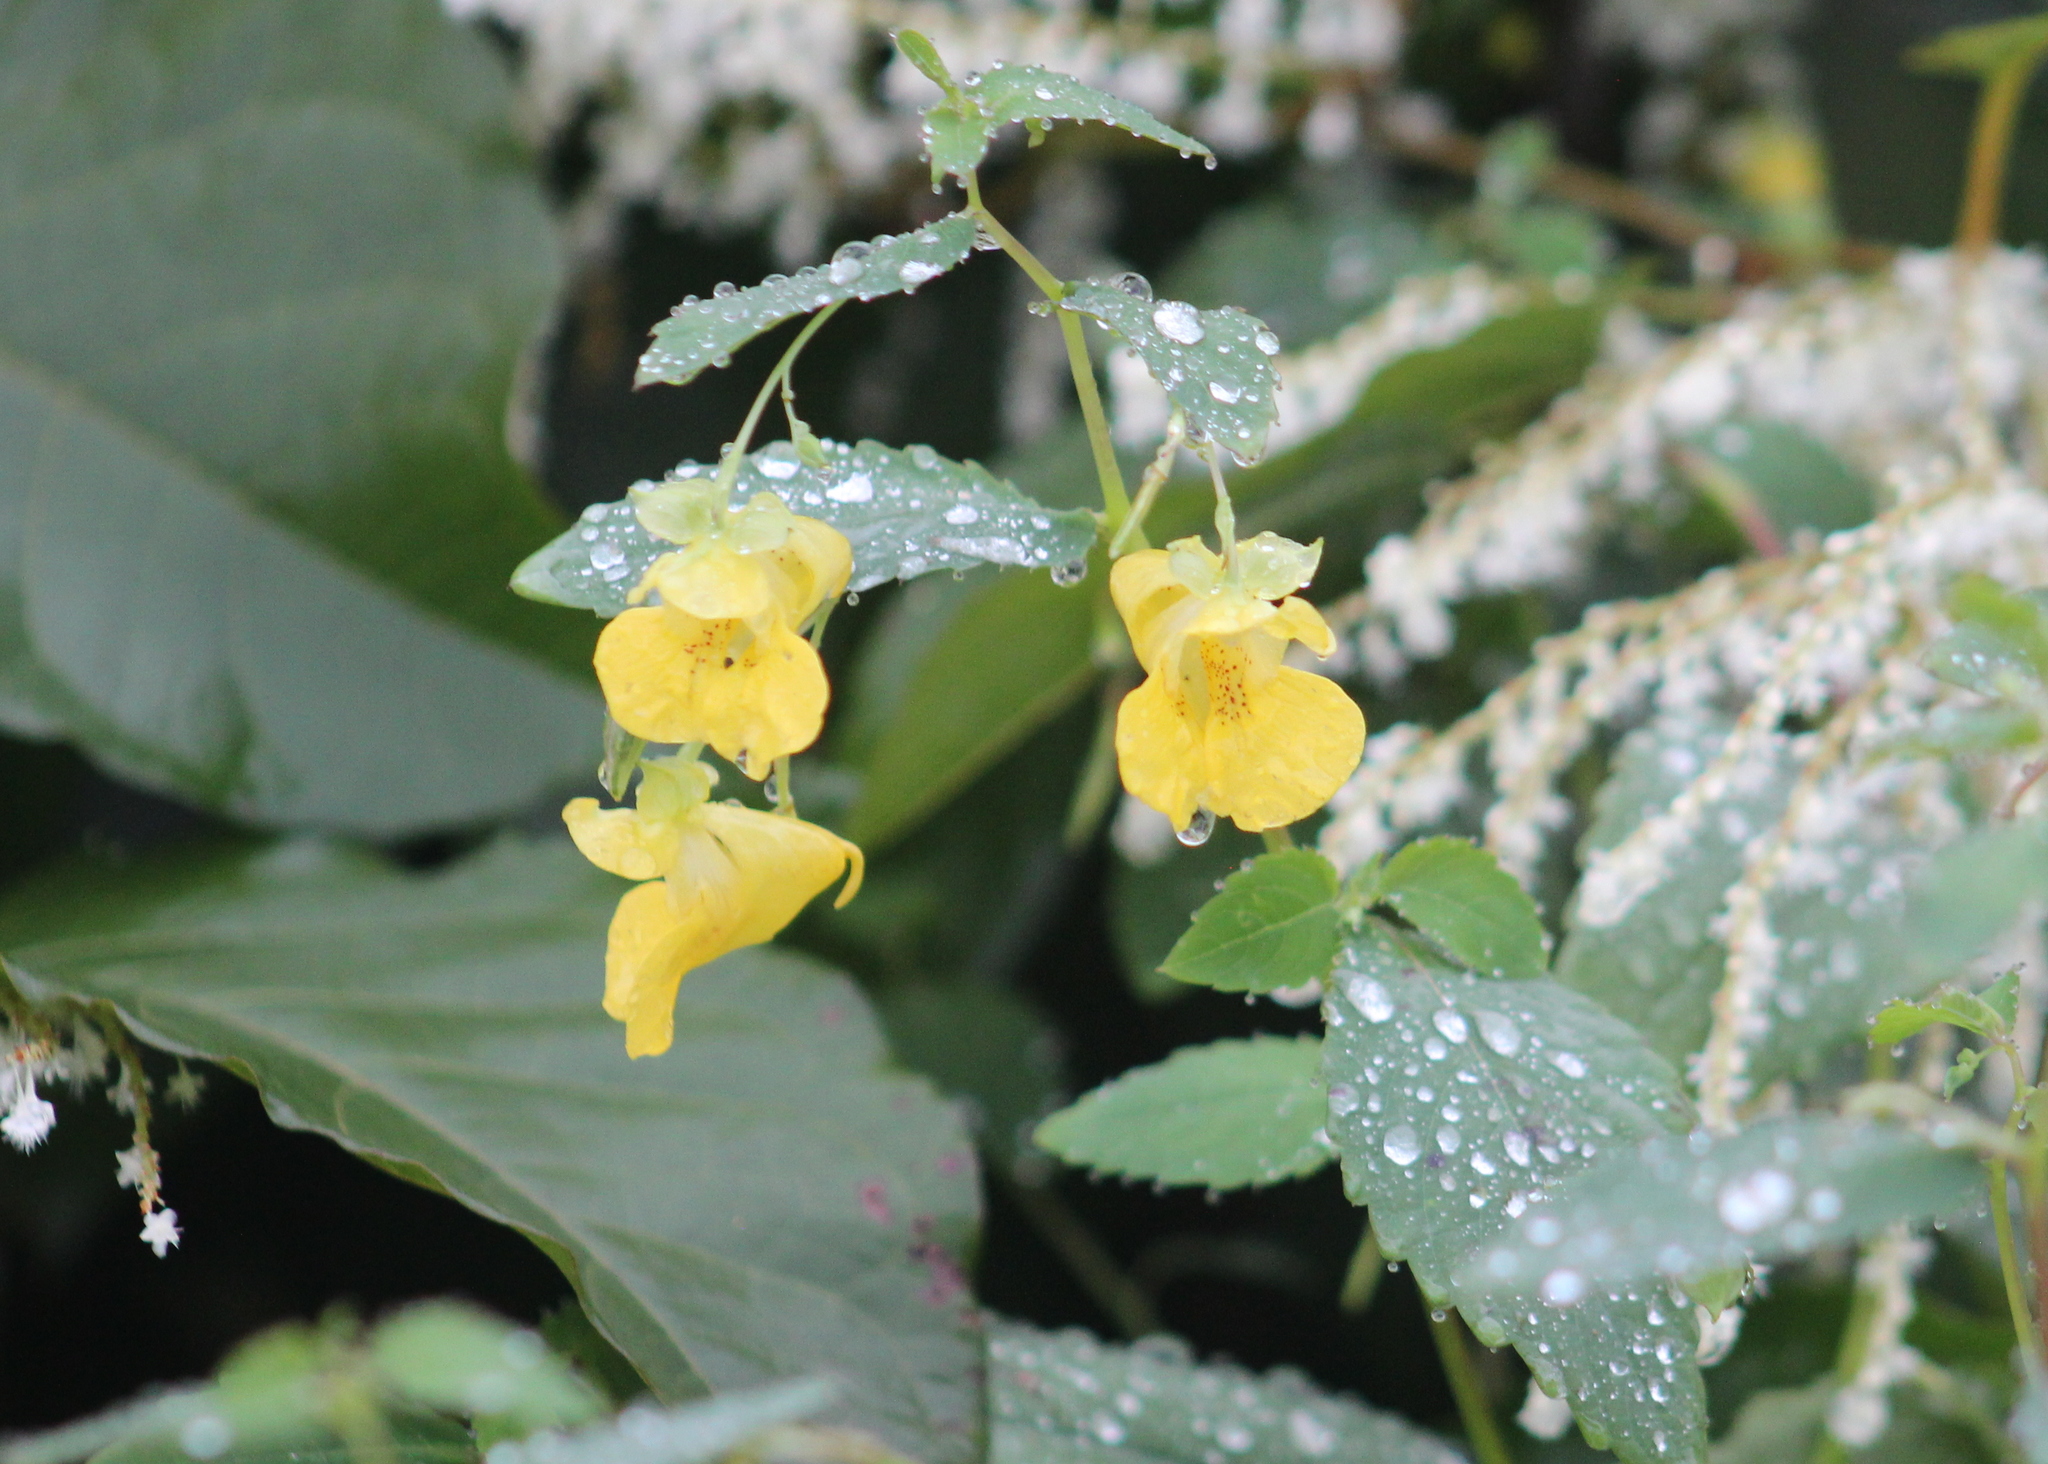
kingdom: Plantae
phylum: Tracheophyta
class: Magnoliopsida
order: Ericales
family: Balsaminaceae
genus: Impatiens
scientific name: Impatiens pallida
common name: Pale snapweed
